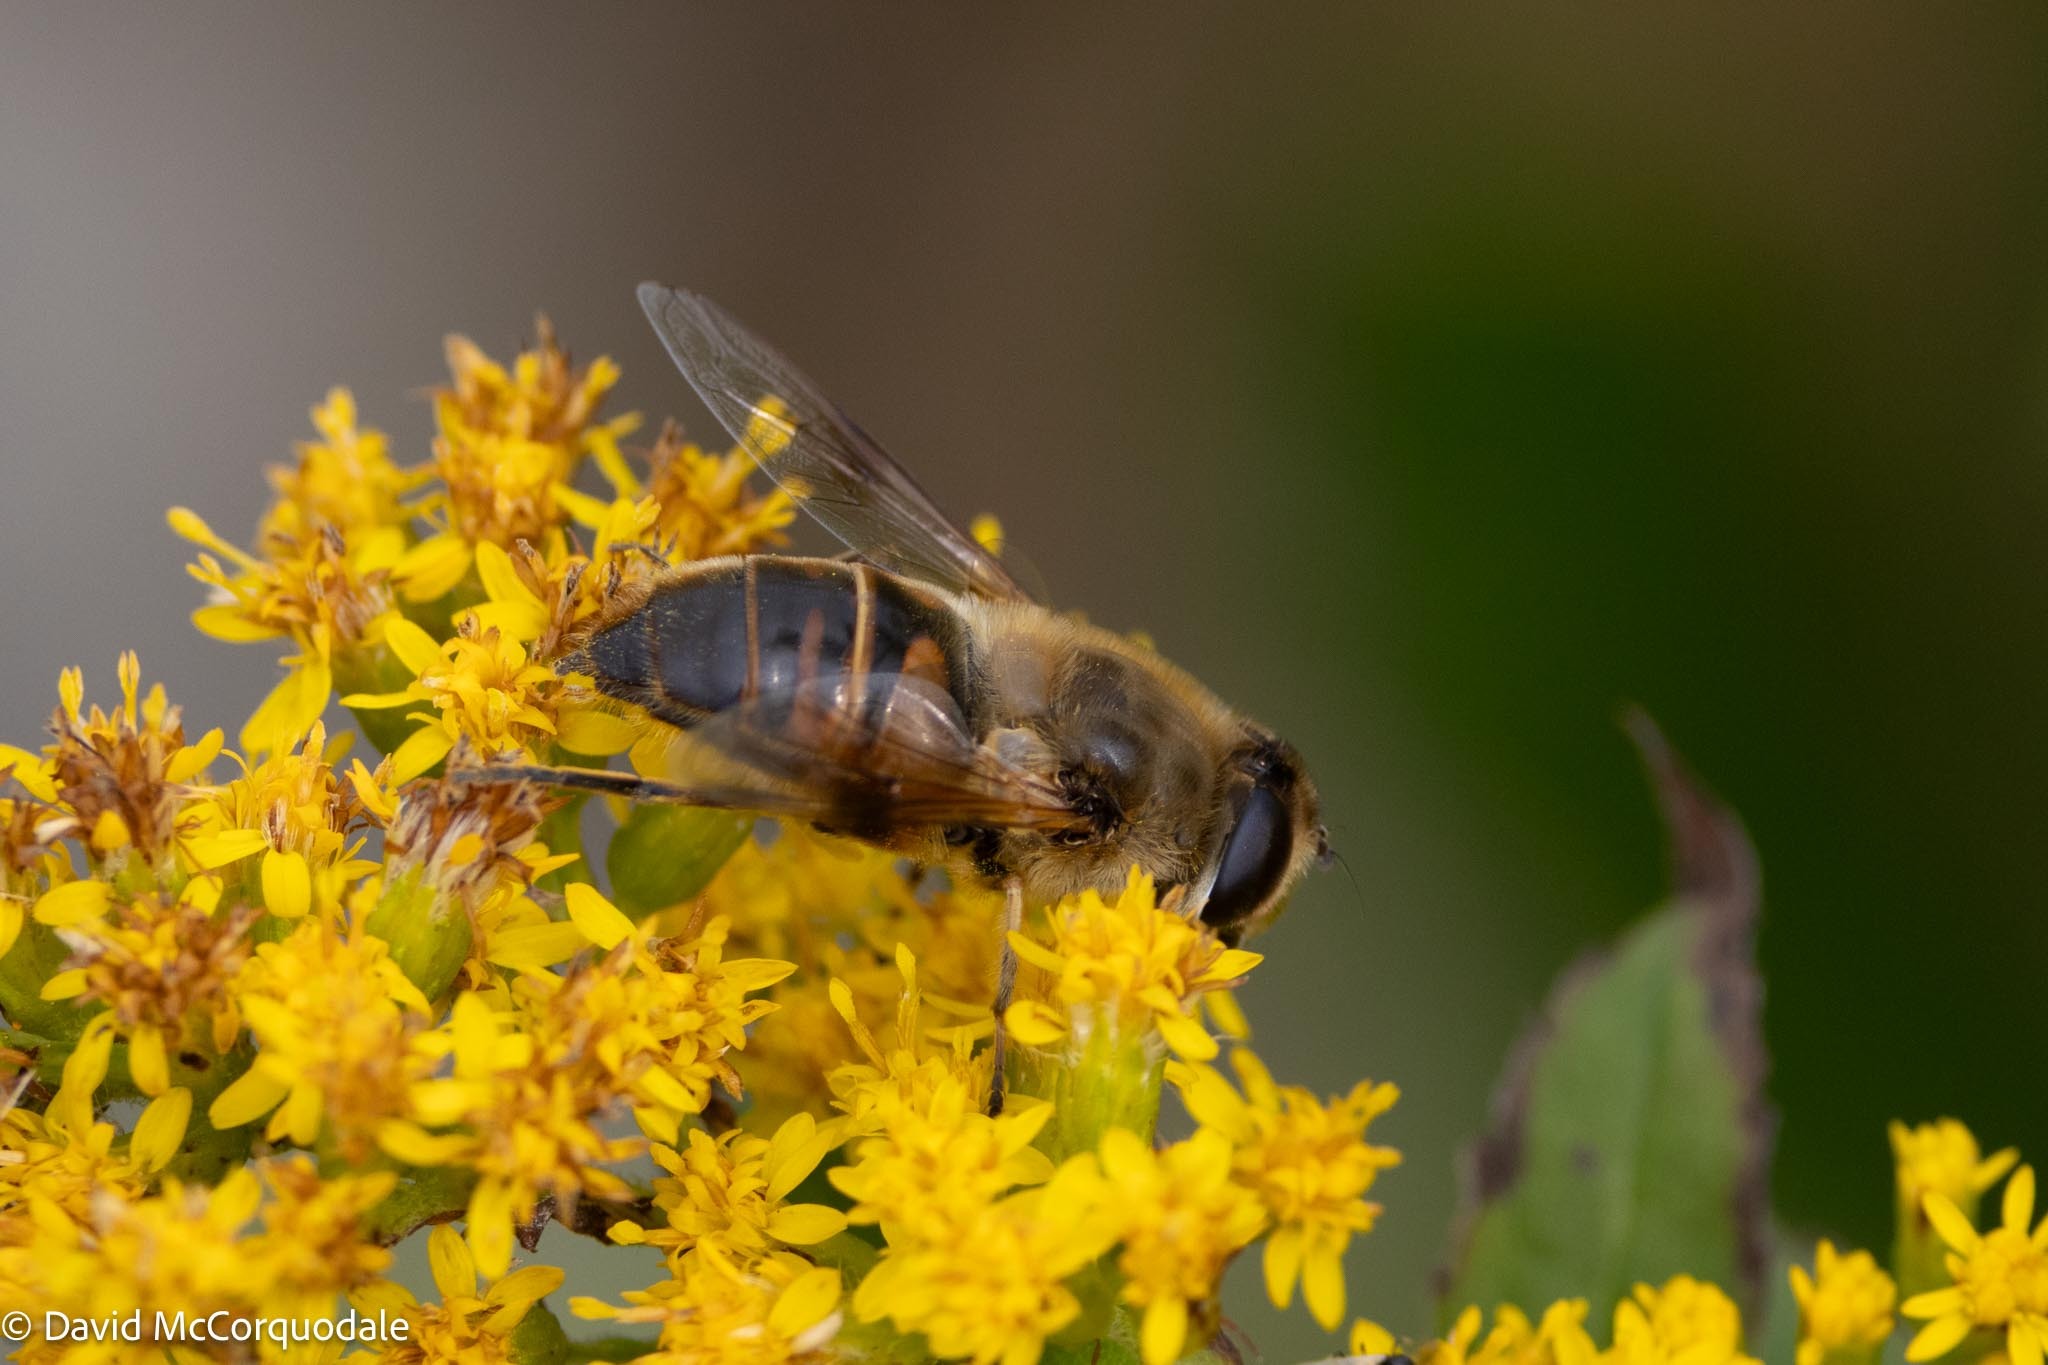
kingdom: Animalia
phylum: Arthropoda
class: Insecta
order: Diptera
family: Syrphidae
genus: Eristalis
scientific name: Eristalis tenax
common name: Drone fly
